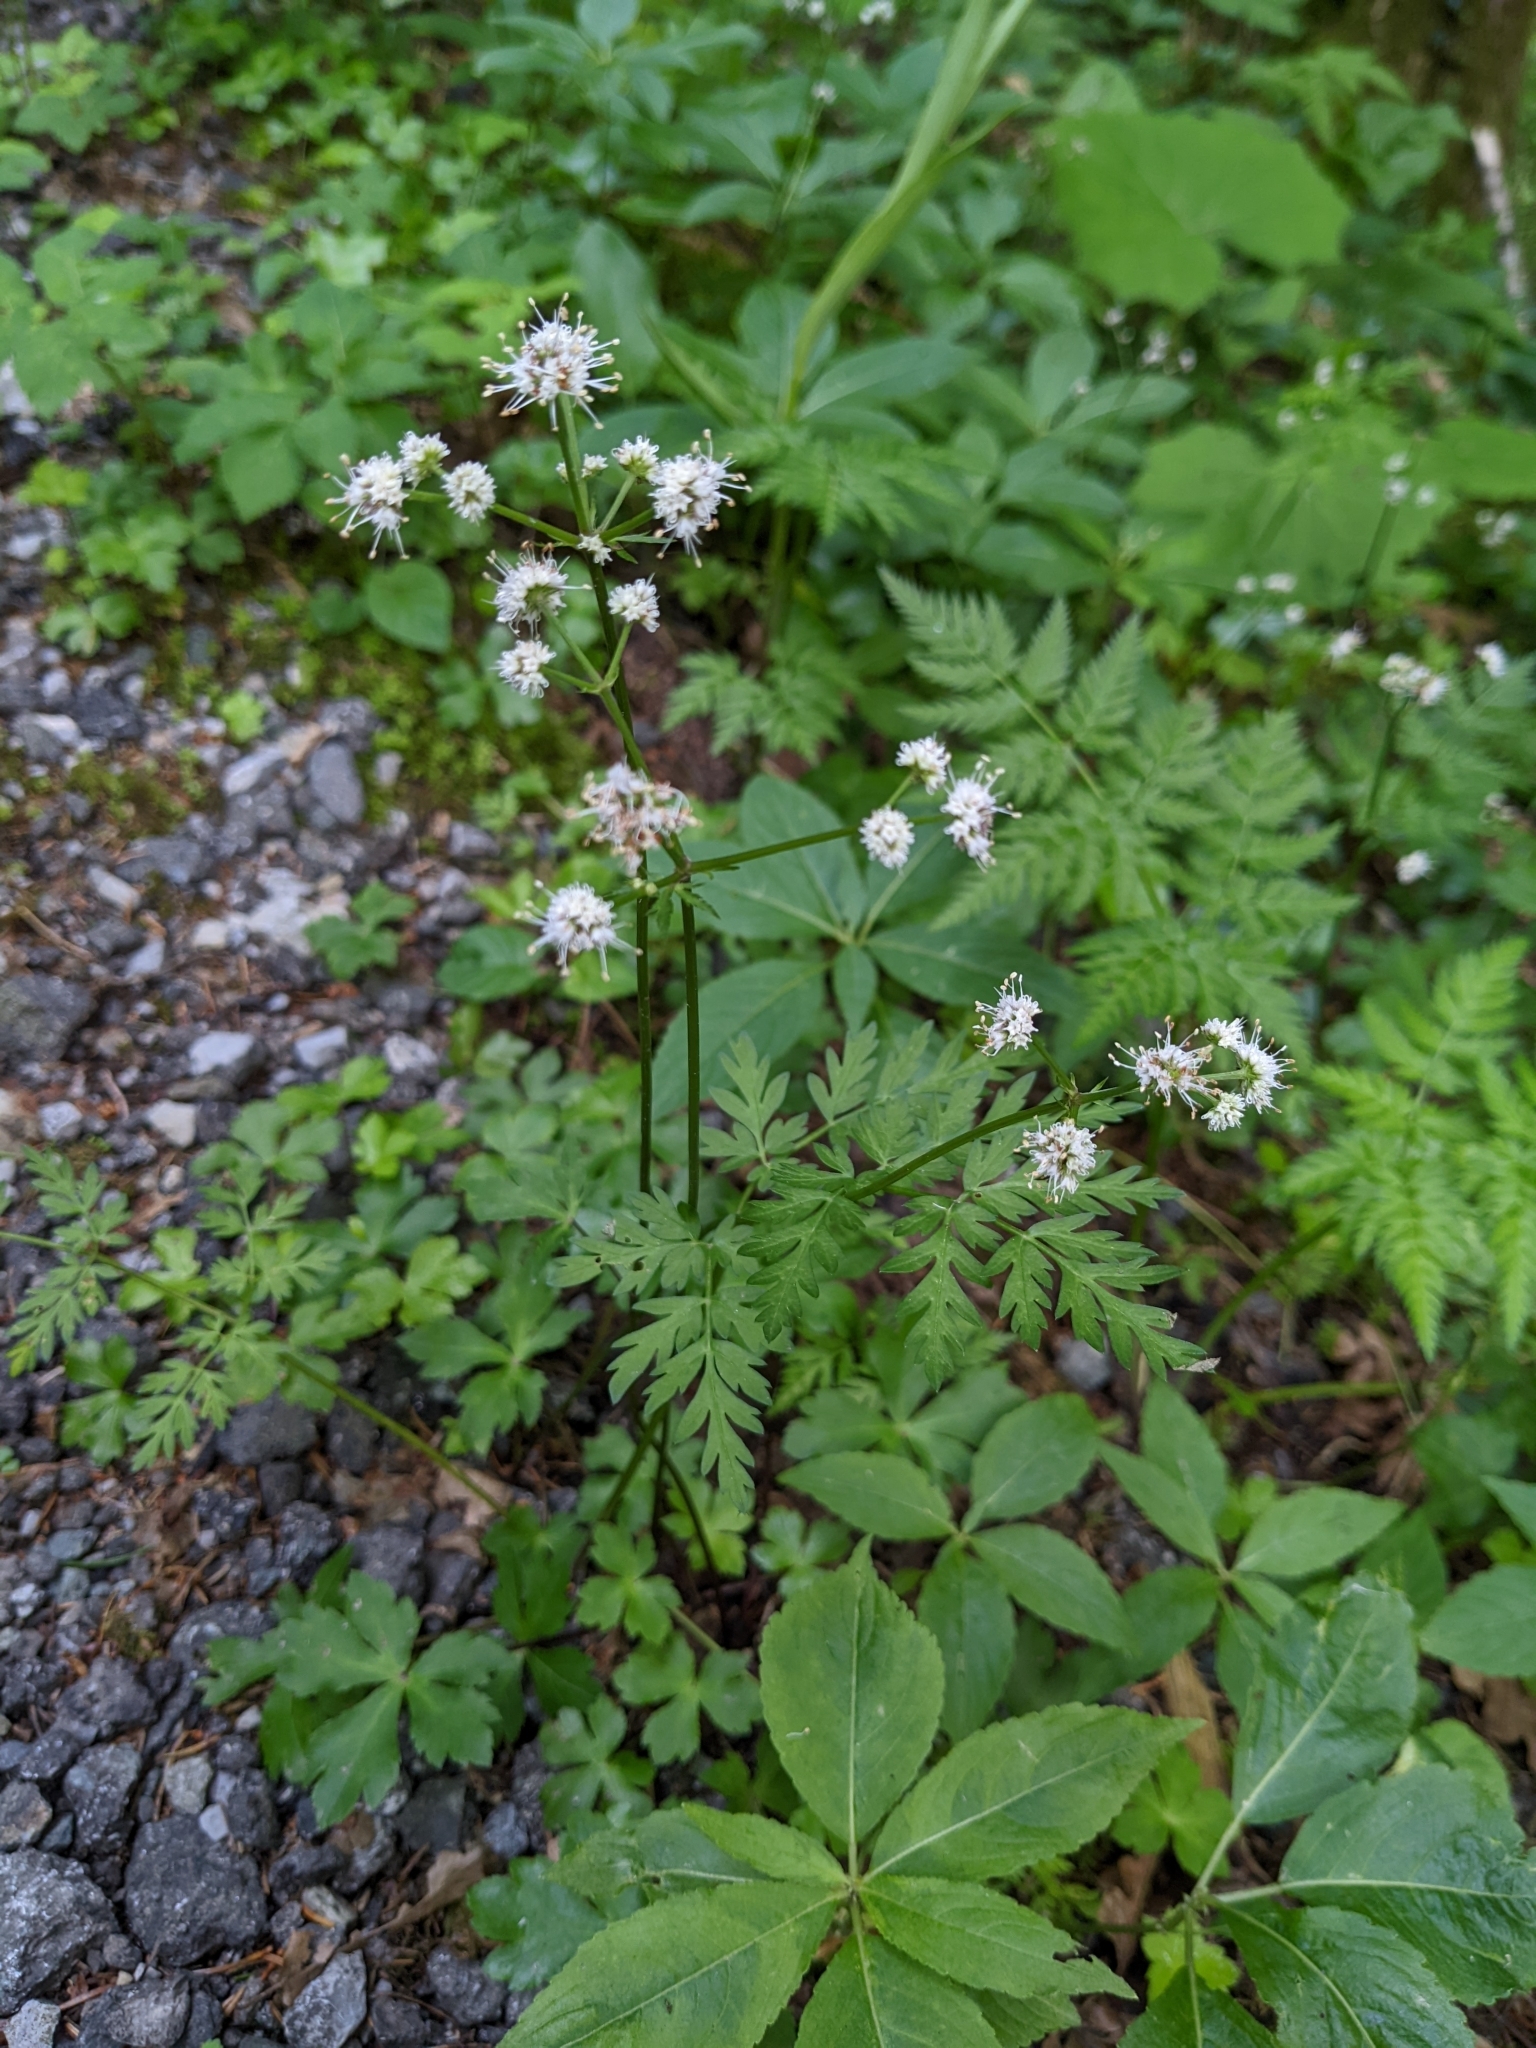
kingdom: Plantae
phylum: Tracheophyta
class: Magnoliopsida
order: Apiales
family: Apiaceae
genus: Sanicula
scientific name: Sanicula europaea
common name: Sanicle
